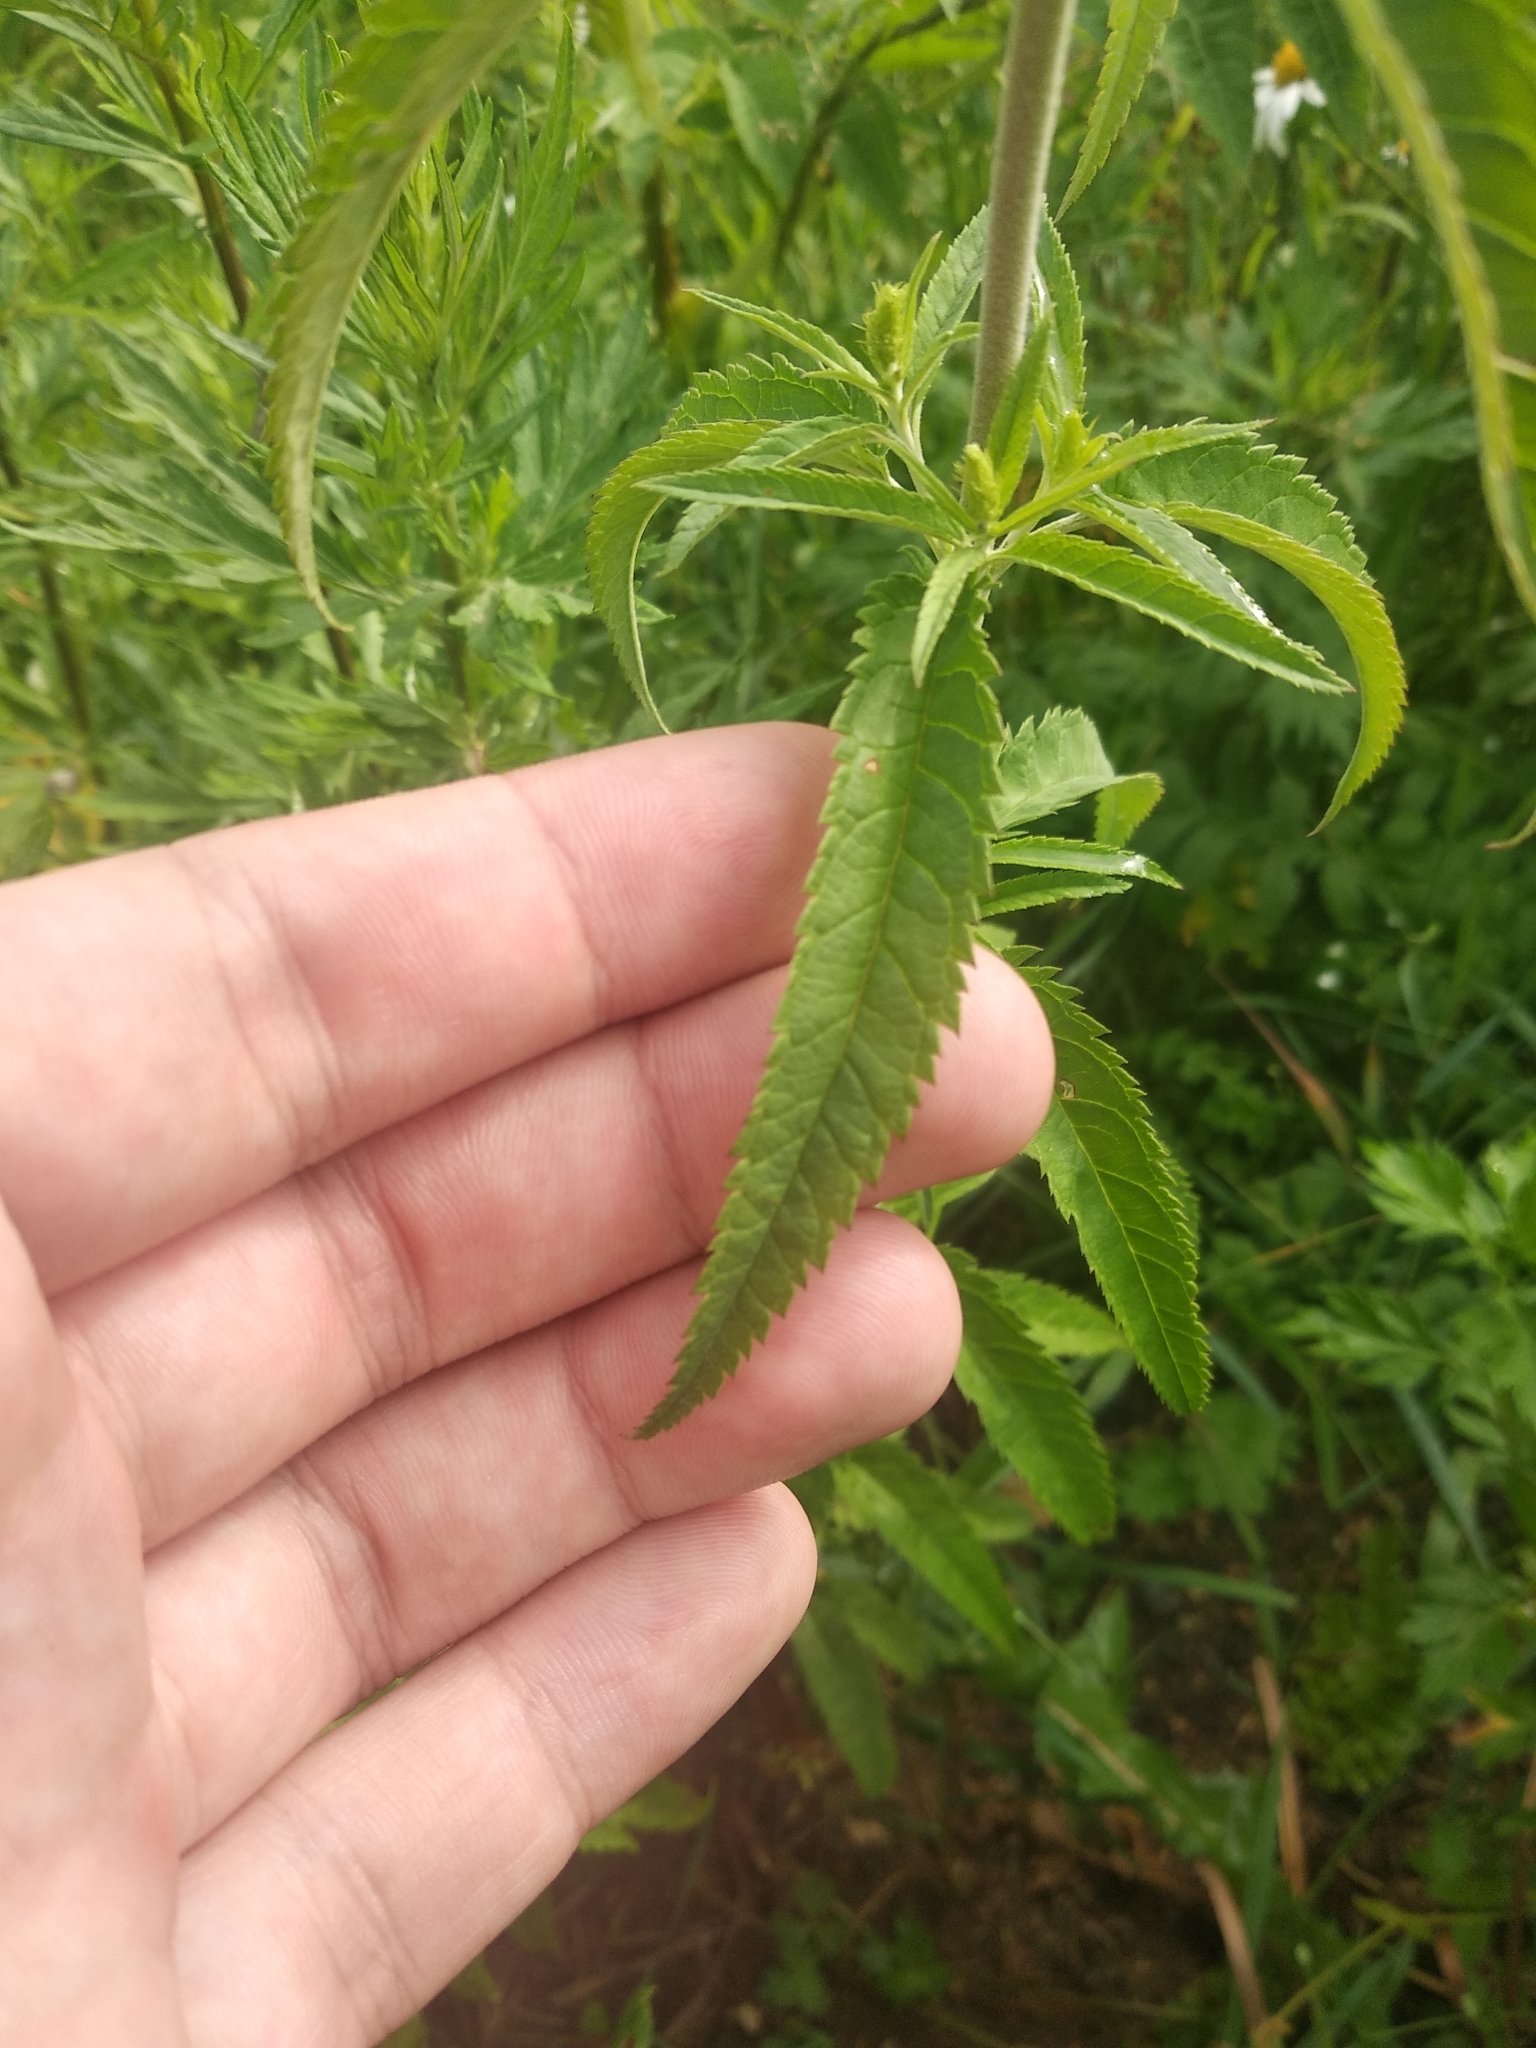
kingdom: Plantae
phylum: Tracheophyta
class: Magnoliopsida
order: Lamiales
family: Plantaginaceae
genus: Veronica
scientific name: Veronica longifolia
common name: Garden speedwell
